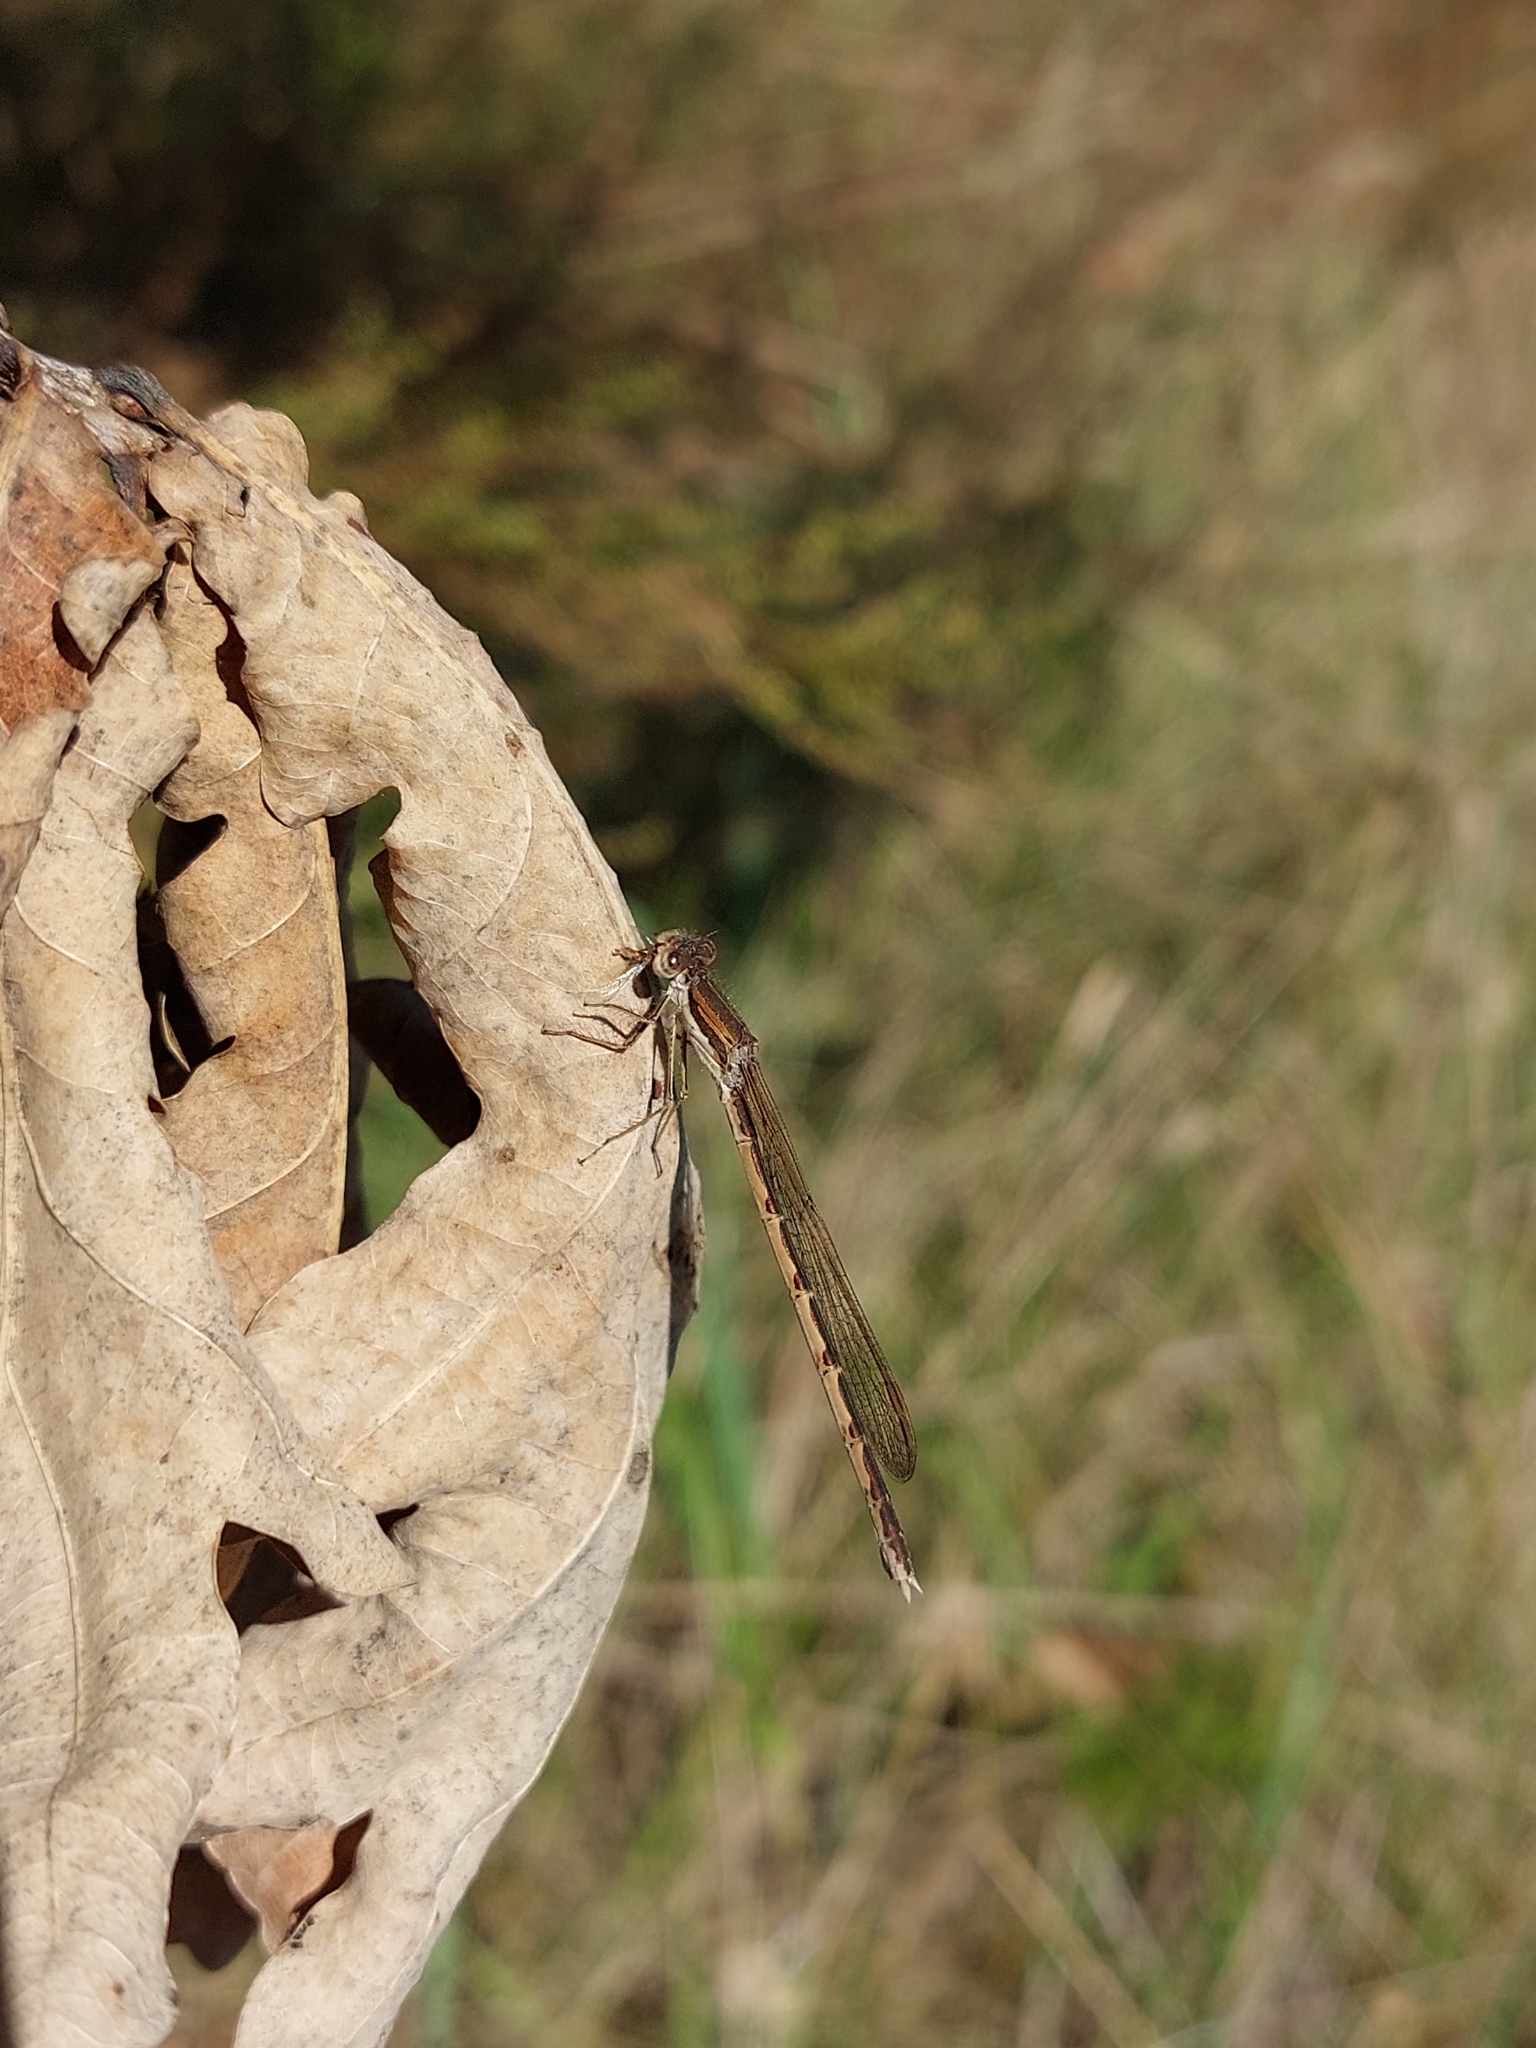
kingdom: Animalia
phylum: Arthropoda
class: Insecta
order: Odonata
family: Lestidae
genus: Sympecma
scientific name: Sympecma fusca
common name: Common winter damsel
